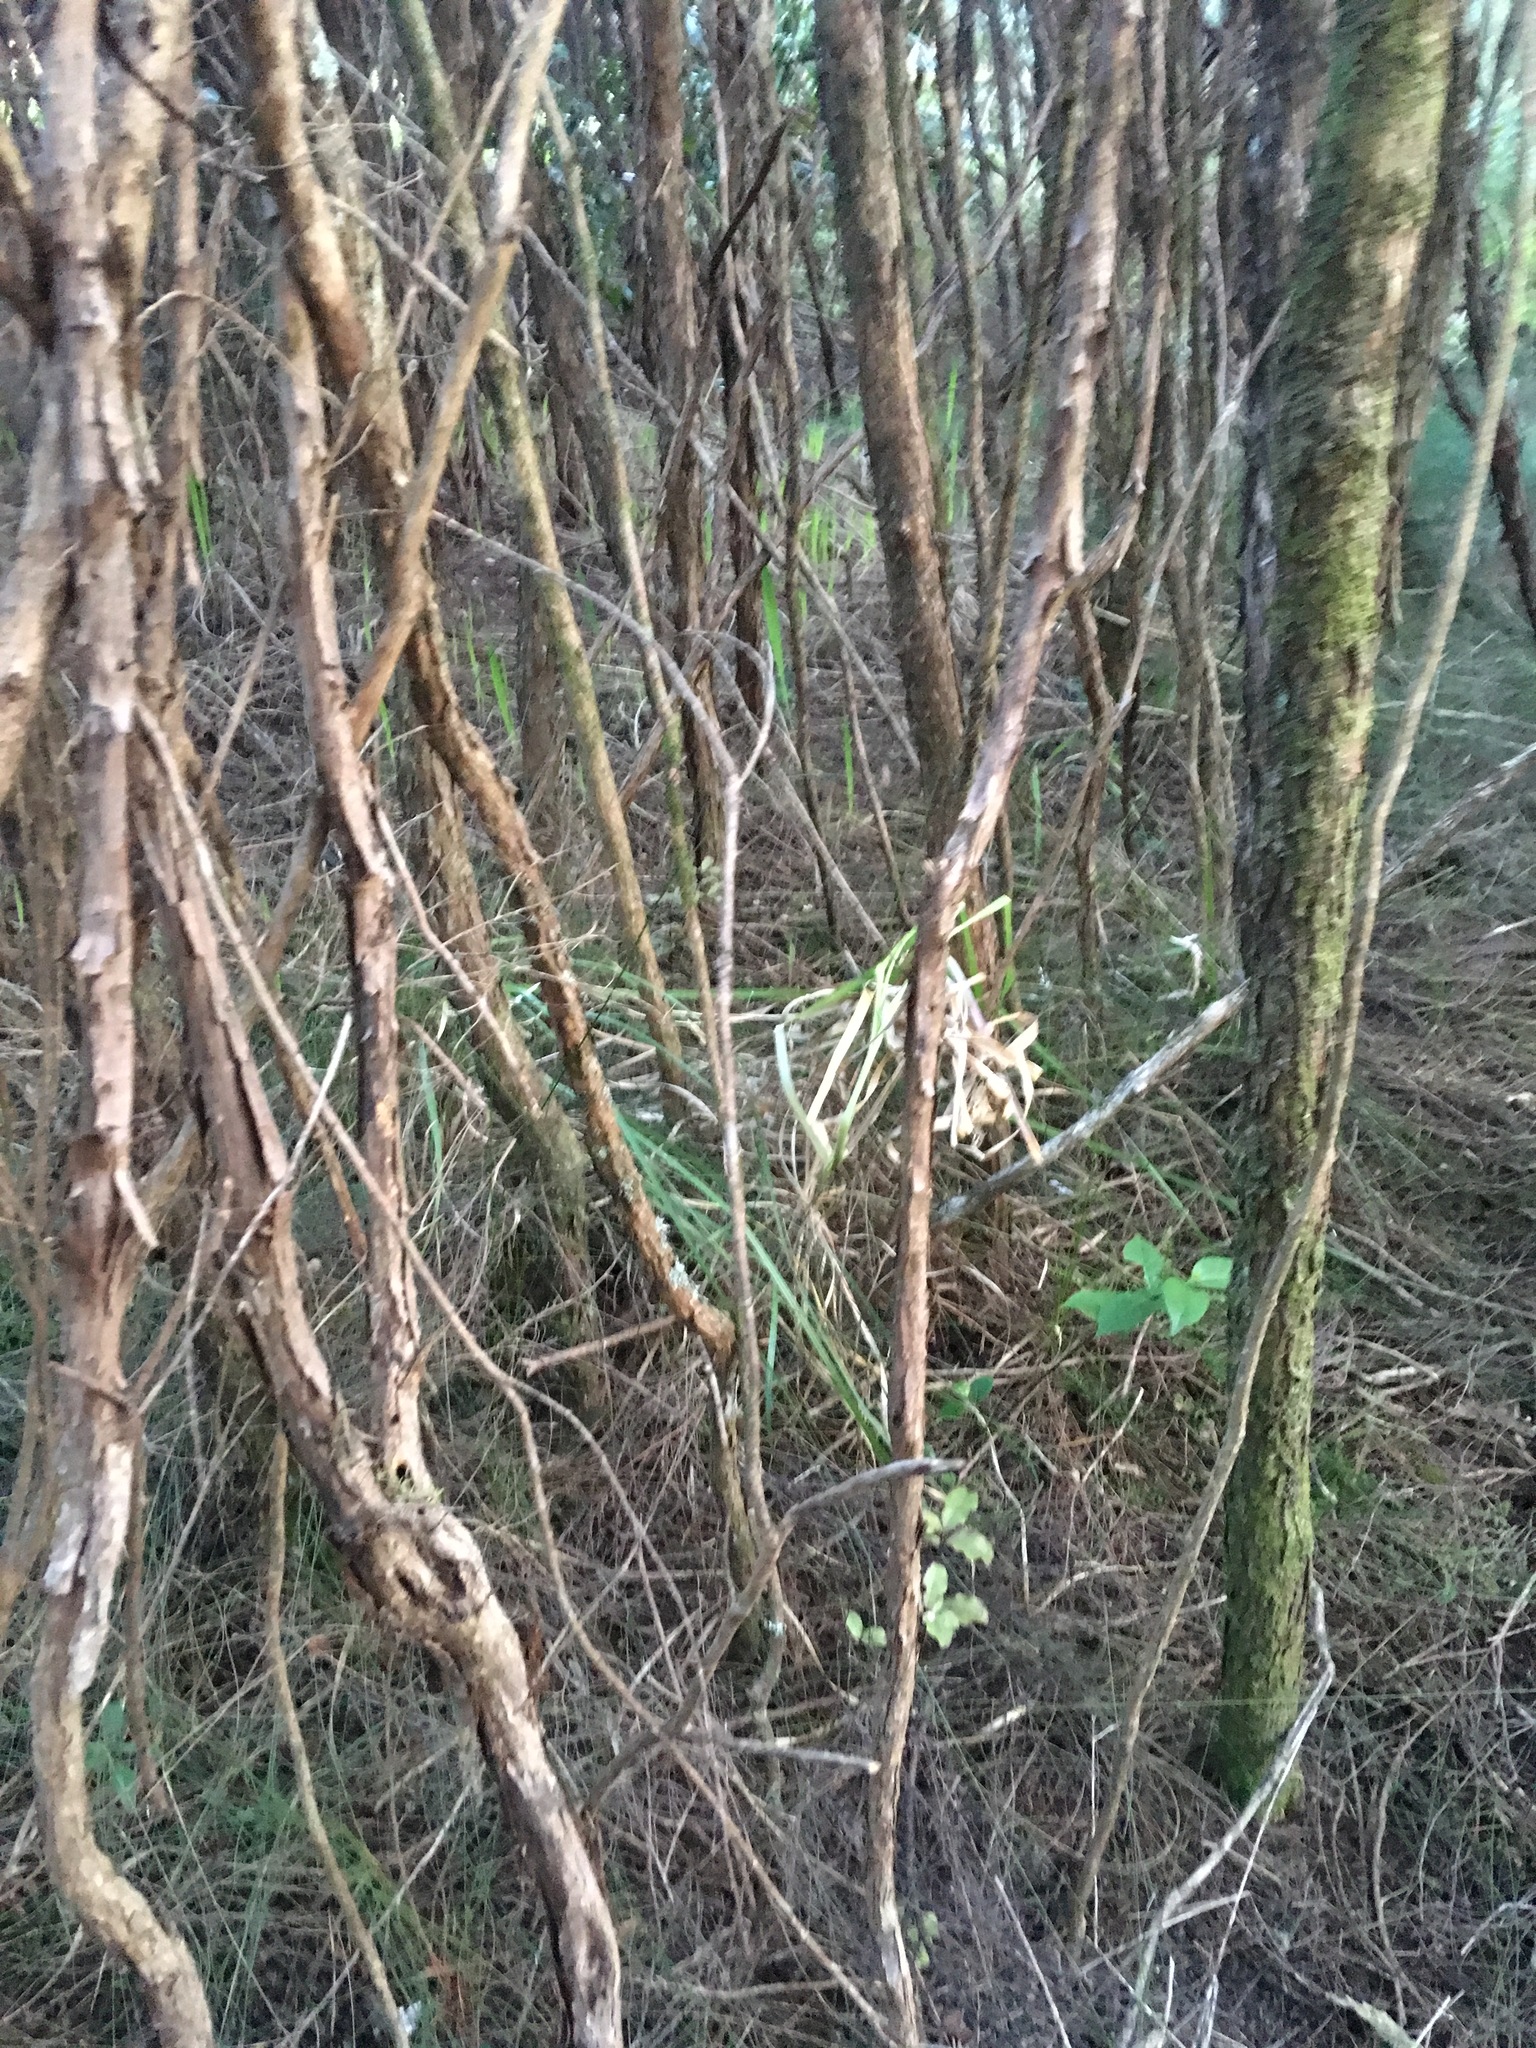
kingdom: Plantae
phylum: Tracheophyta
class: Liliopsida
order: Poales
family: Poaceae
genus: Cortaderia
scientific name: Cortaderia selloana
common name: Uruguayan pampas grass
